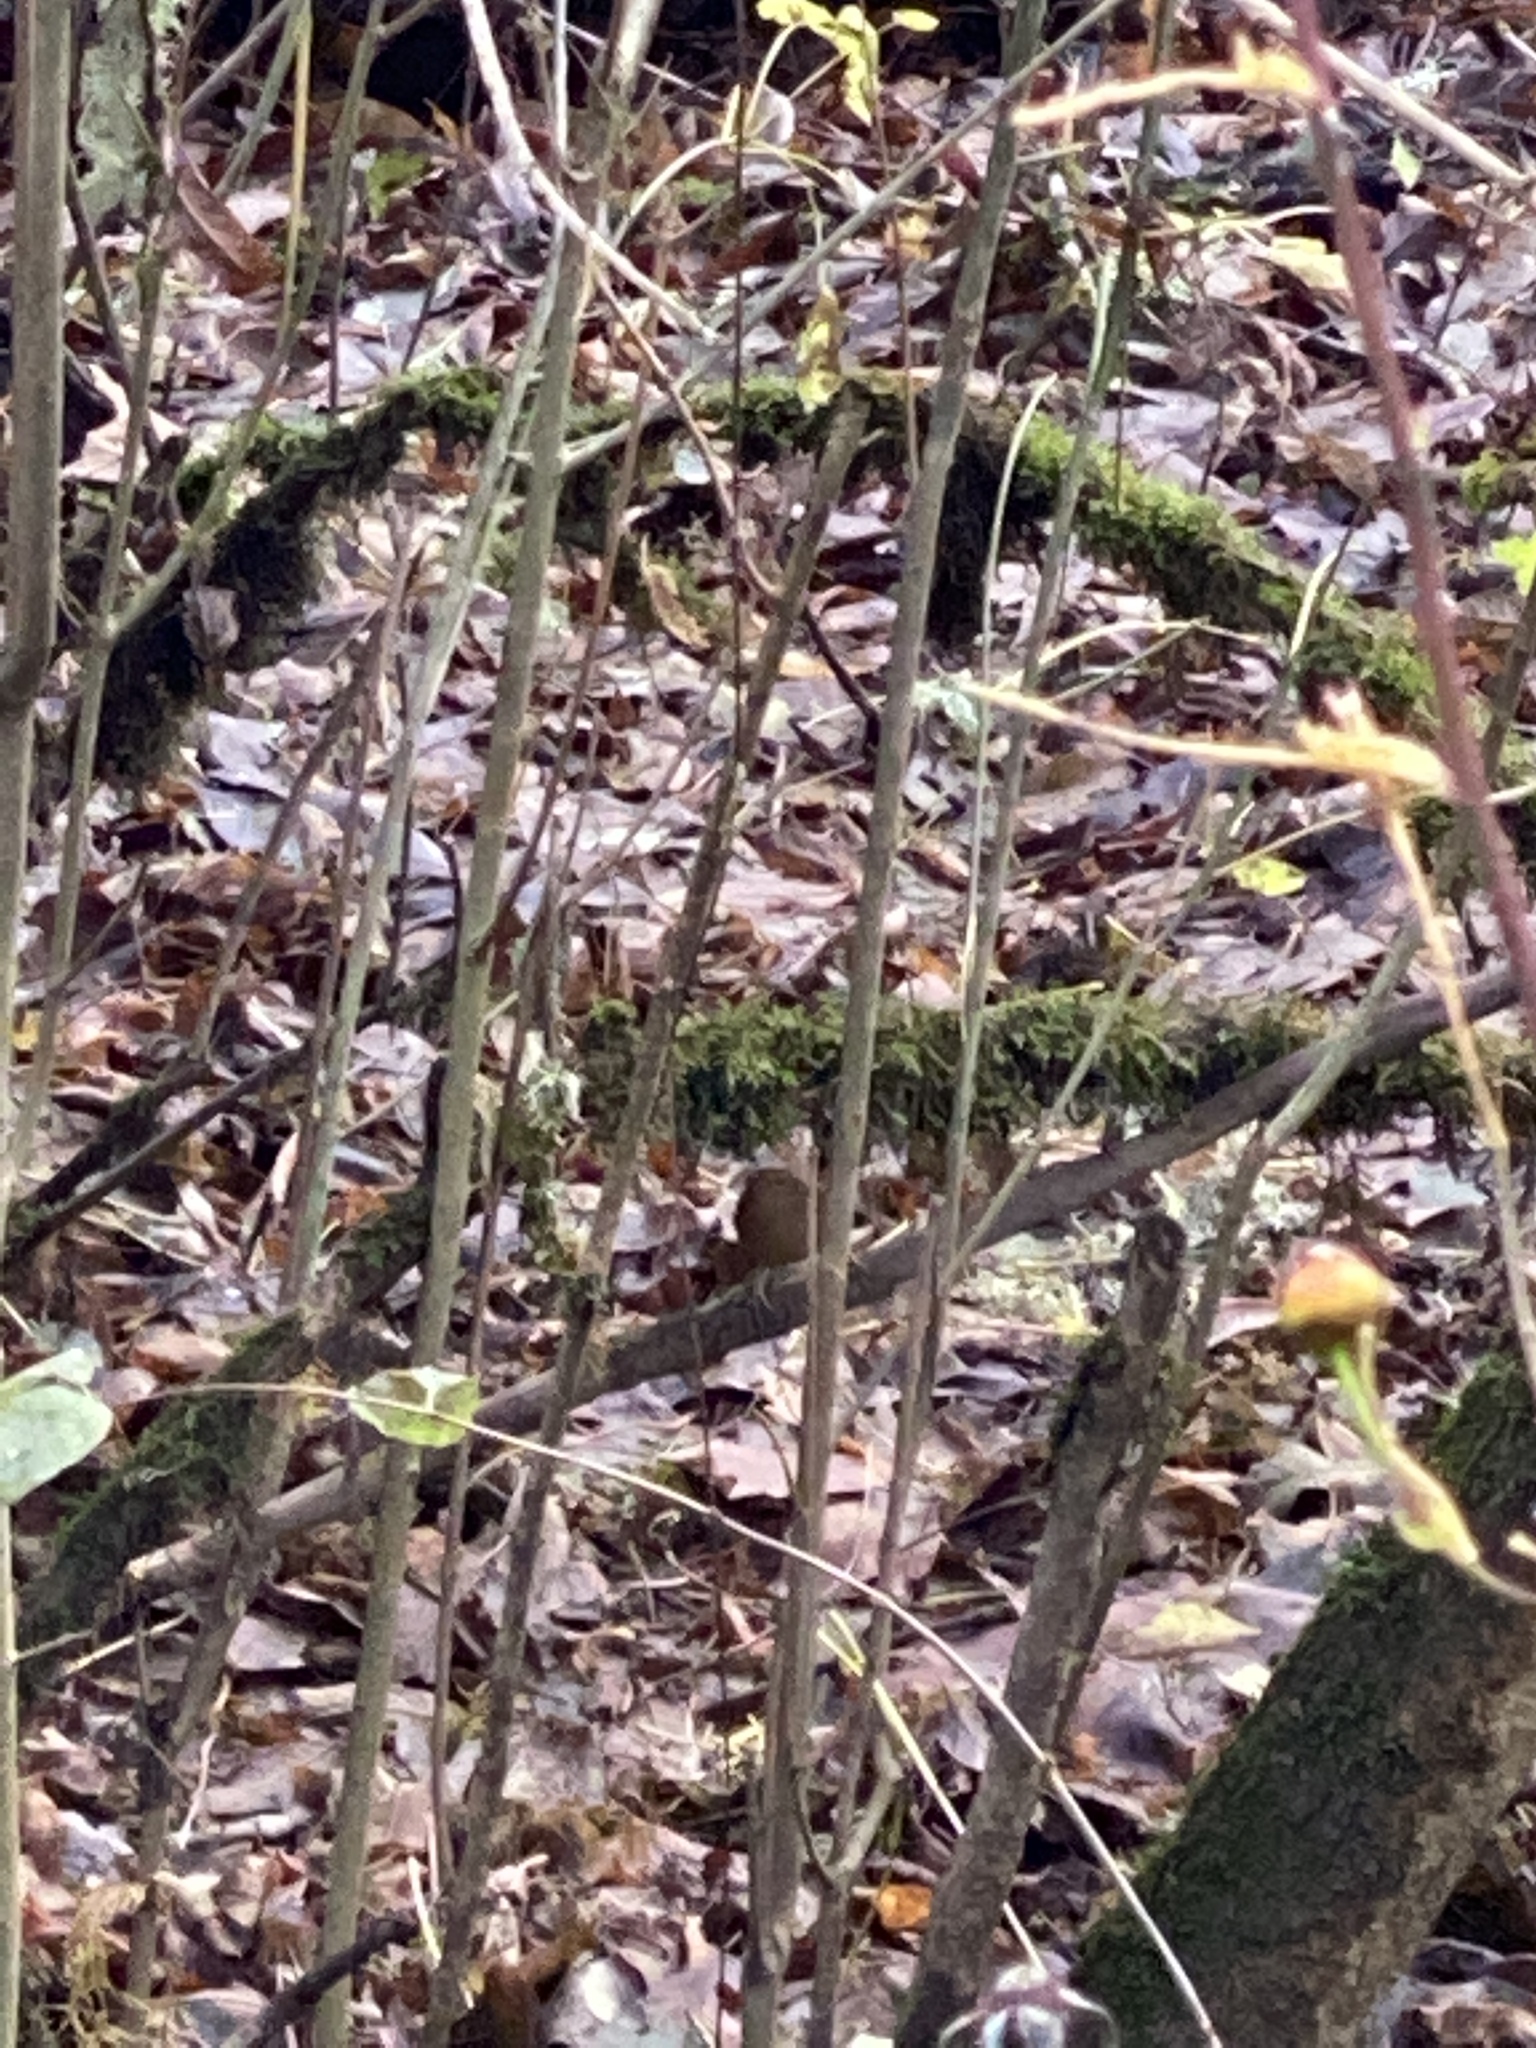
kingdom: Animalia
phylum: Chordata
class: Aves
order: Passeriformes
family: Troglodytidae
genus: Troglodytes
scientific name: Troglodytes pacificus
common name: Pacific wren
